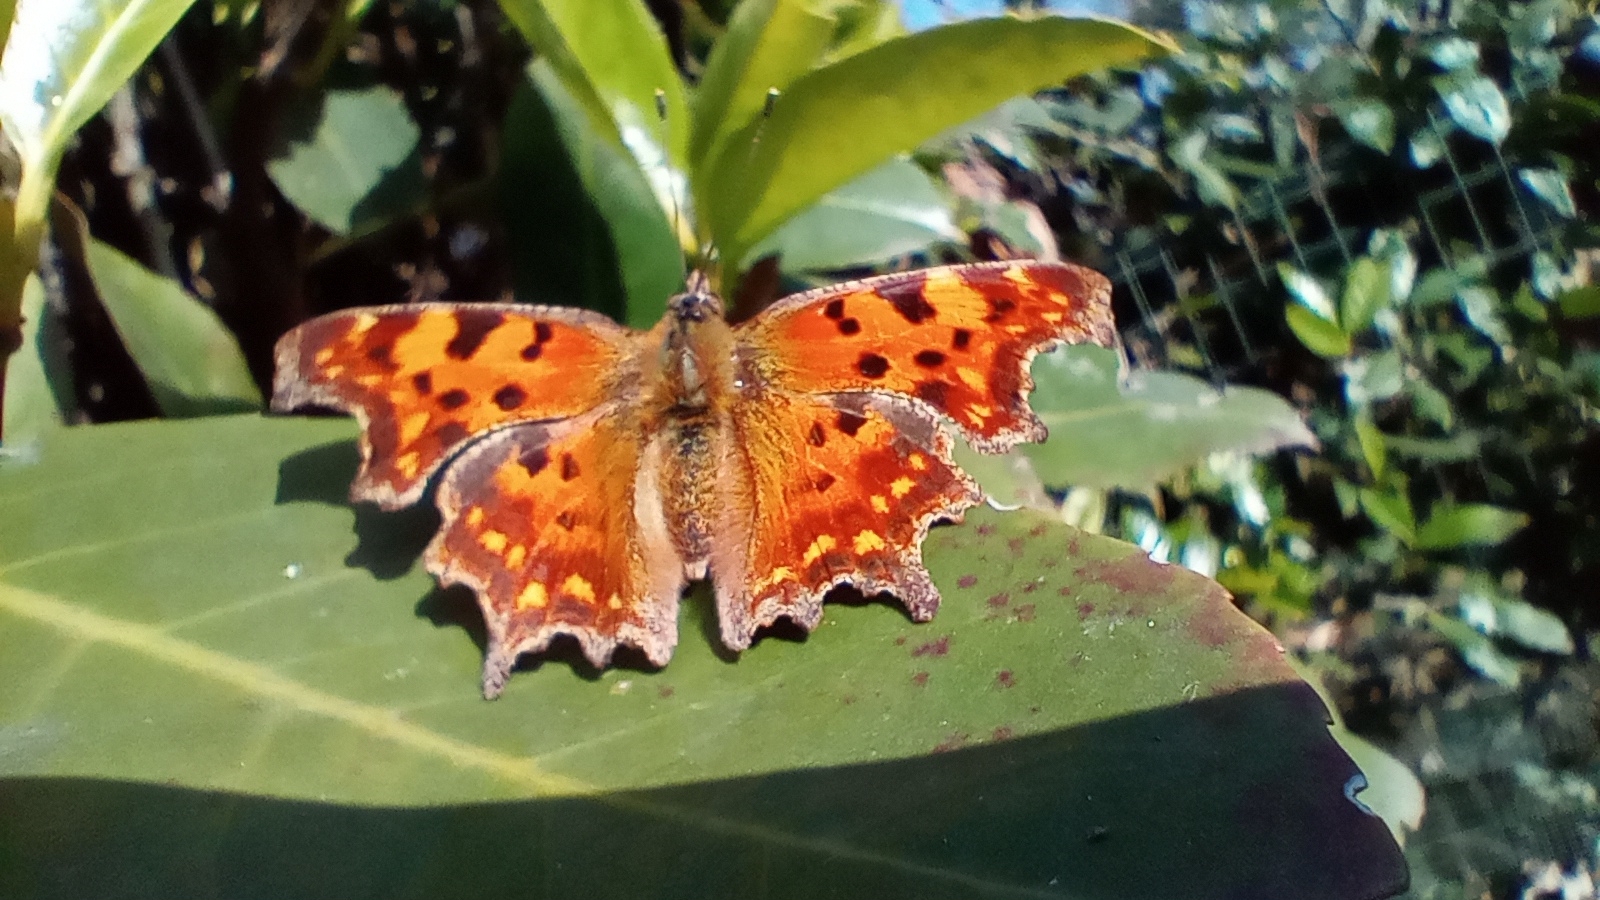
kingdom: Animalia
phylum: Arthropoda
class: Insecta
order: Lepidoptera
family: Nymphalidae
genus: Polygonia
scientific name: Polygonia c-album
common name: Comma
